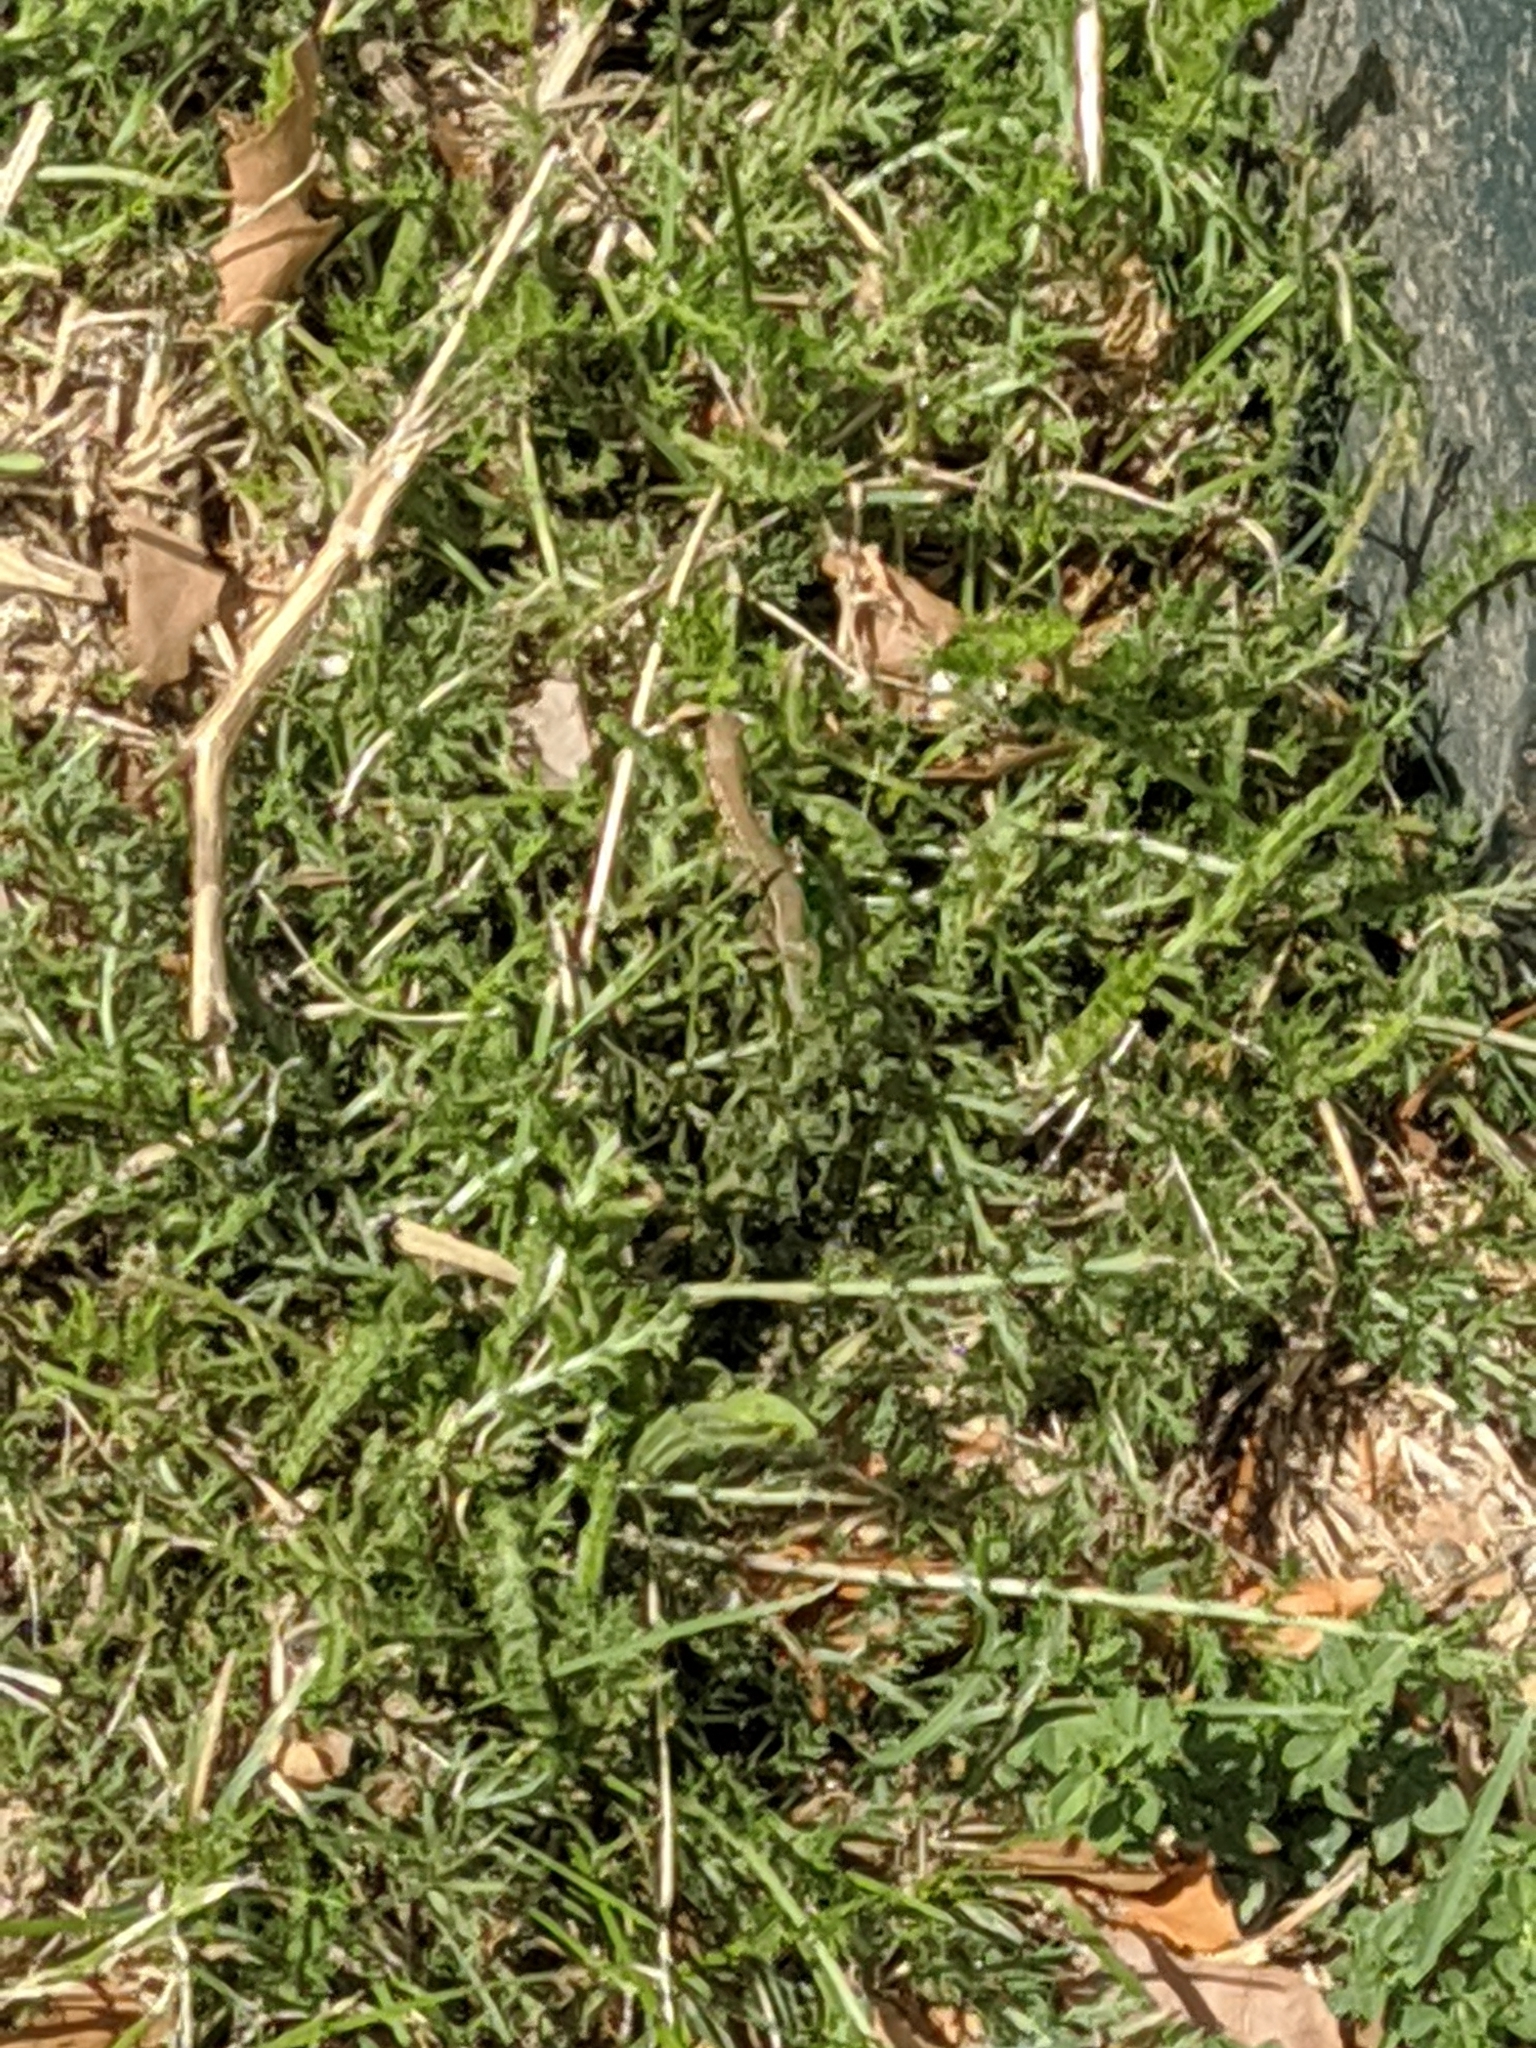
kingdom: Animalia
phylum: Chordata
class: Squamata
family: Lacertidae
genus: Podarcis
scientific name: Podarcis muralis
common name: Common wall lizard
